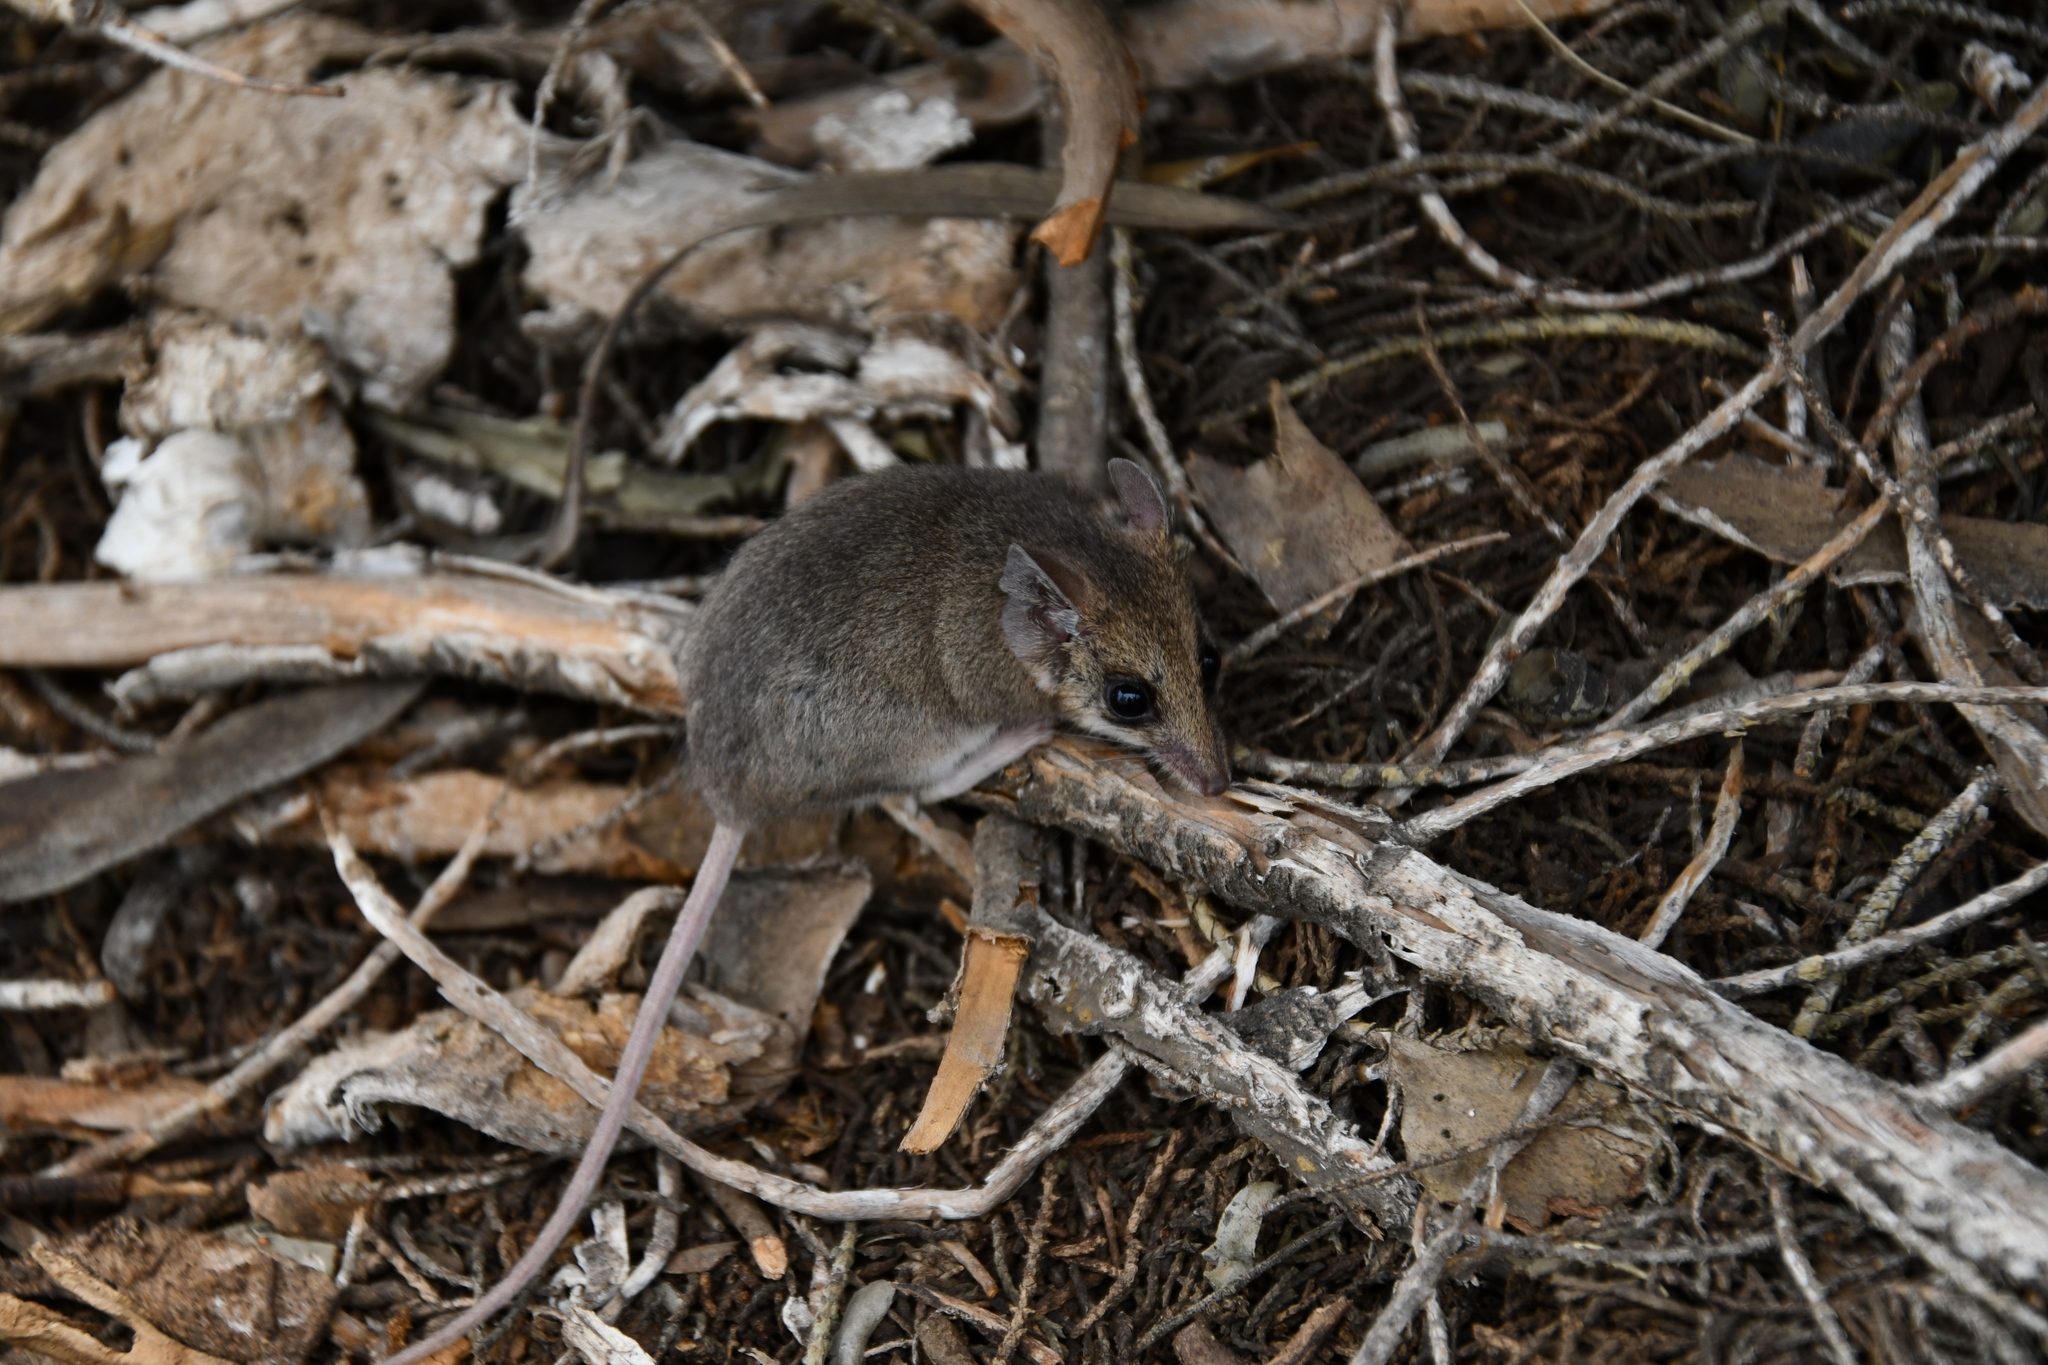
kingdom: Animalia
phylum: Chordata
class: Mammalia
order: Dasyuromorphia
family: Dasyuridae
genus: Sminthopsis
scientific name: Sminthopsis dolichura
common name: Little long-tailed dunnart
